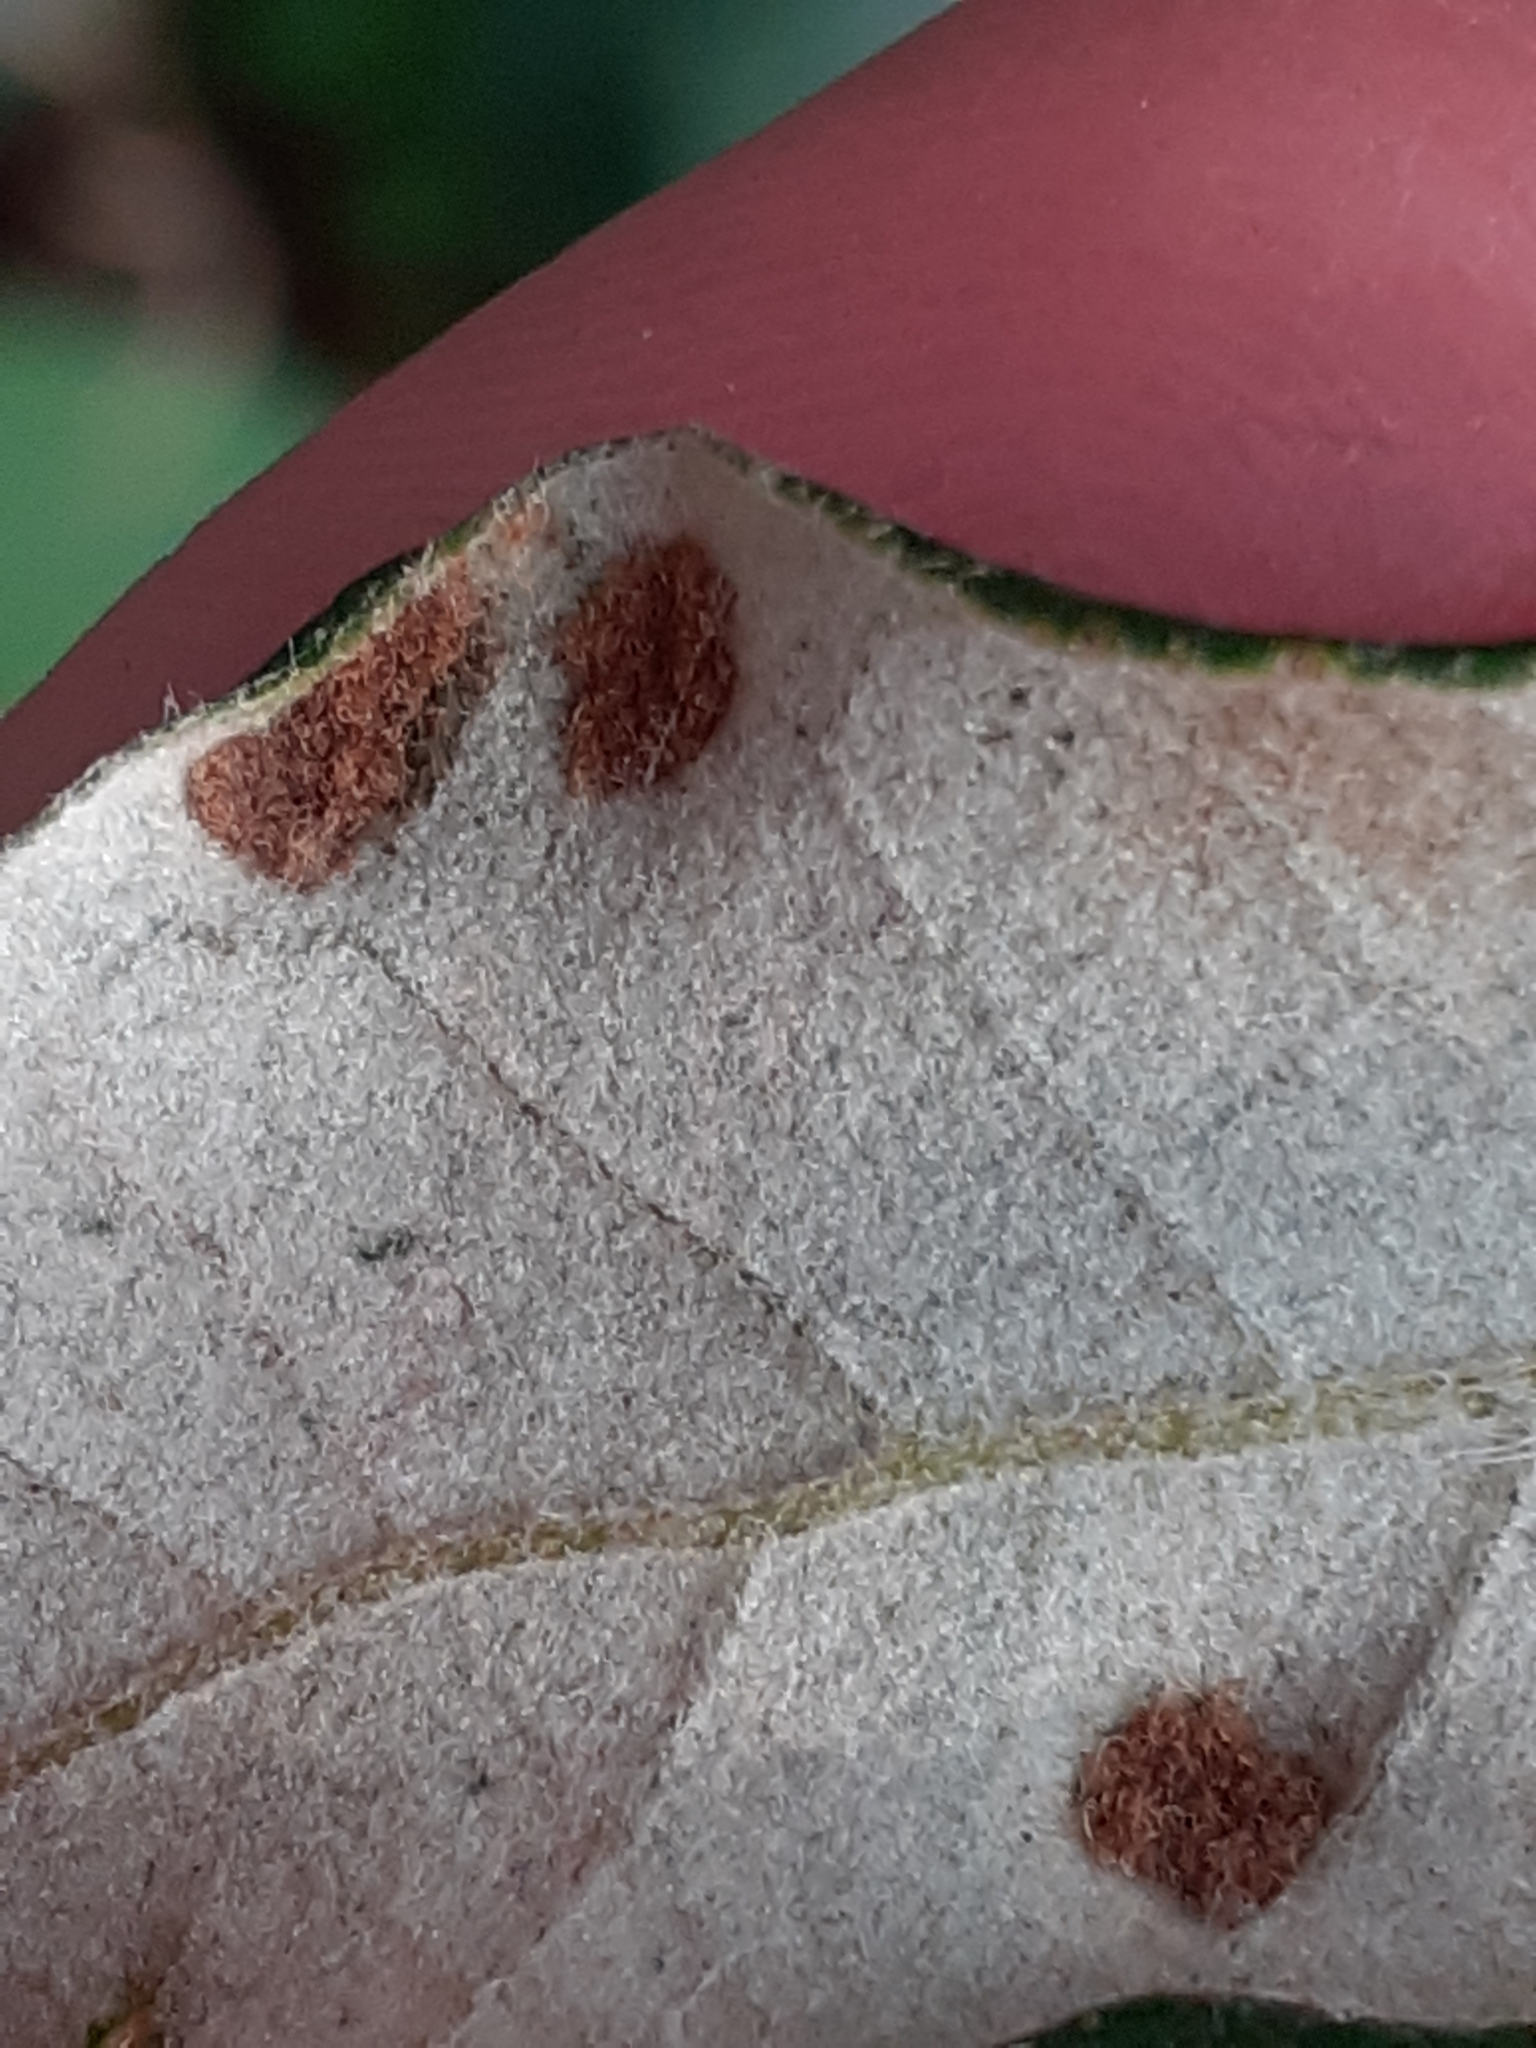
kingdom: Animalia
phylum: Arthropoda
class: Arachnida
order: Trombidiformes
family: Eriophyidae
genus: Aceria
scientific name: Aceria ilicis
